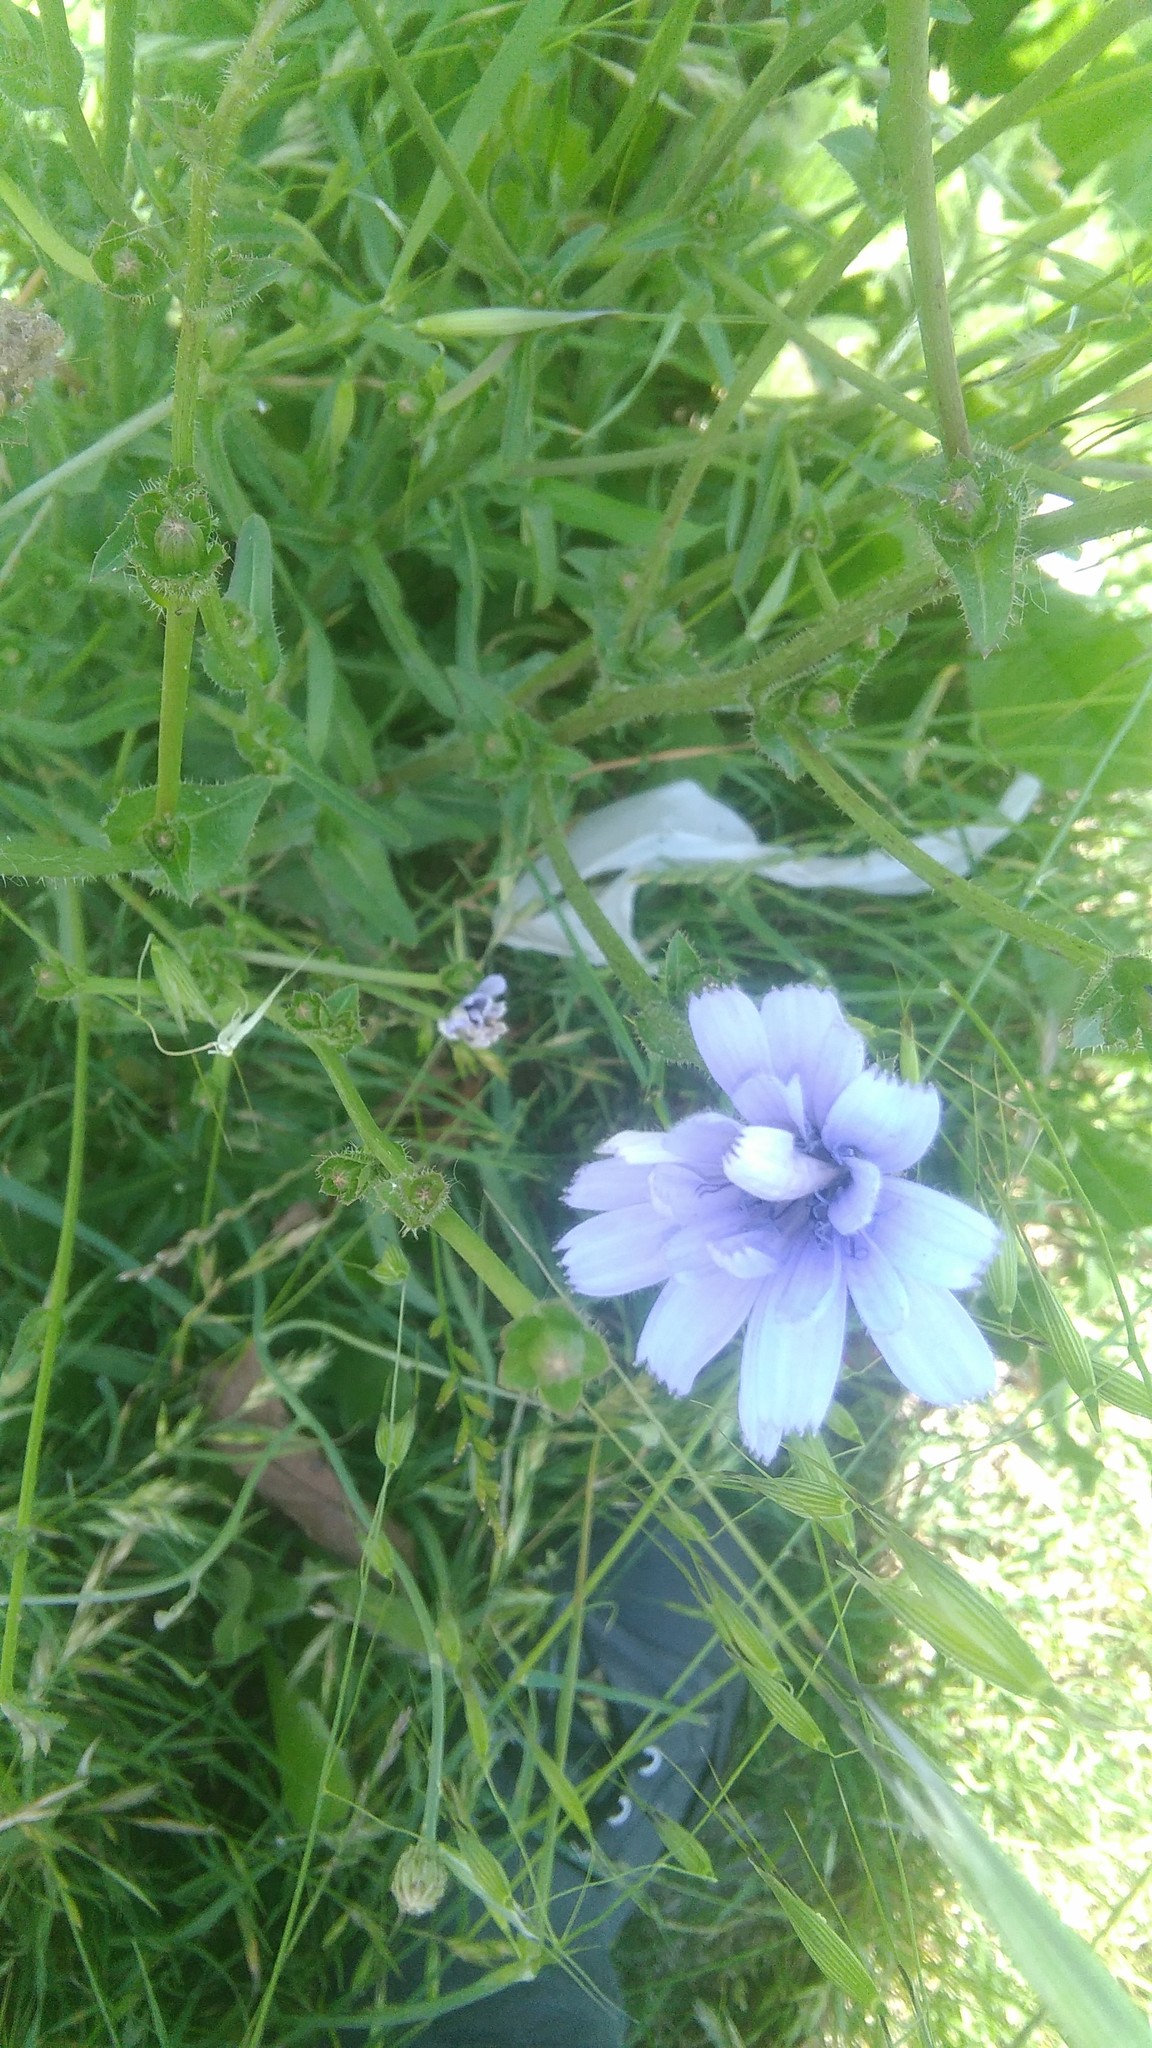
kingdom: Plantae
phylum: Tracheophyta
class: Magnoliopsida
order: Asterales
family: Asteraceae
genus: Cichorium
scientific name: Cichorium intybus
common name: Chicory
